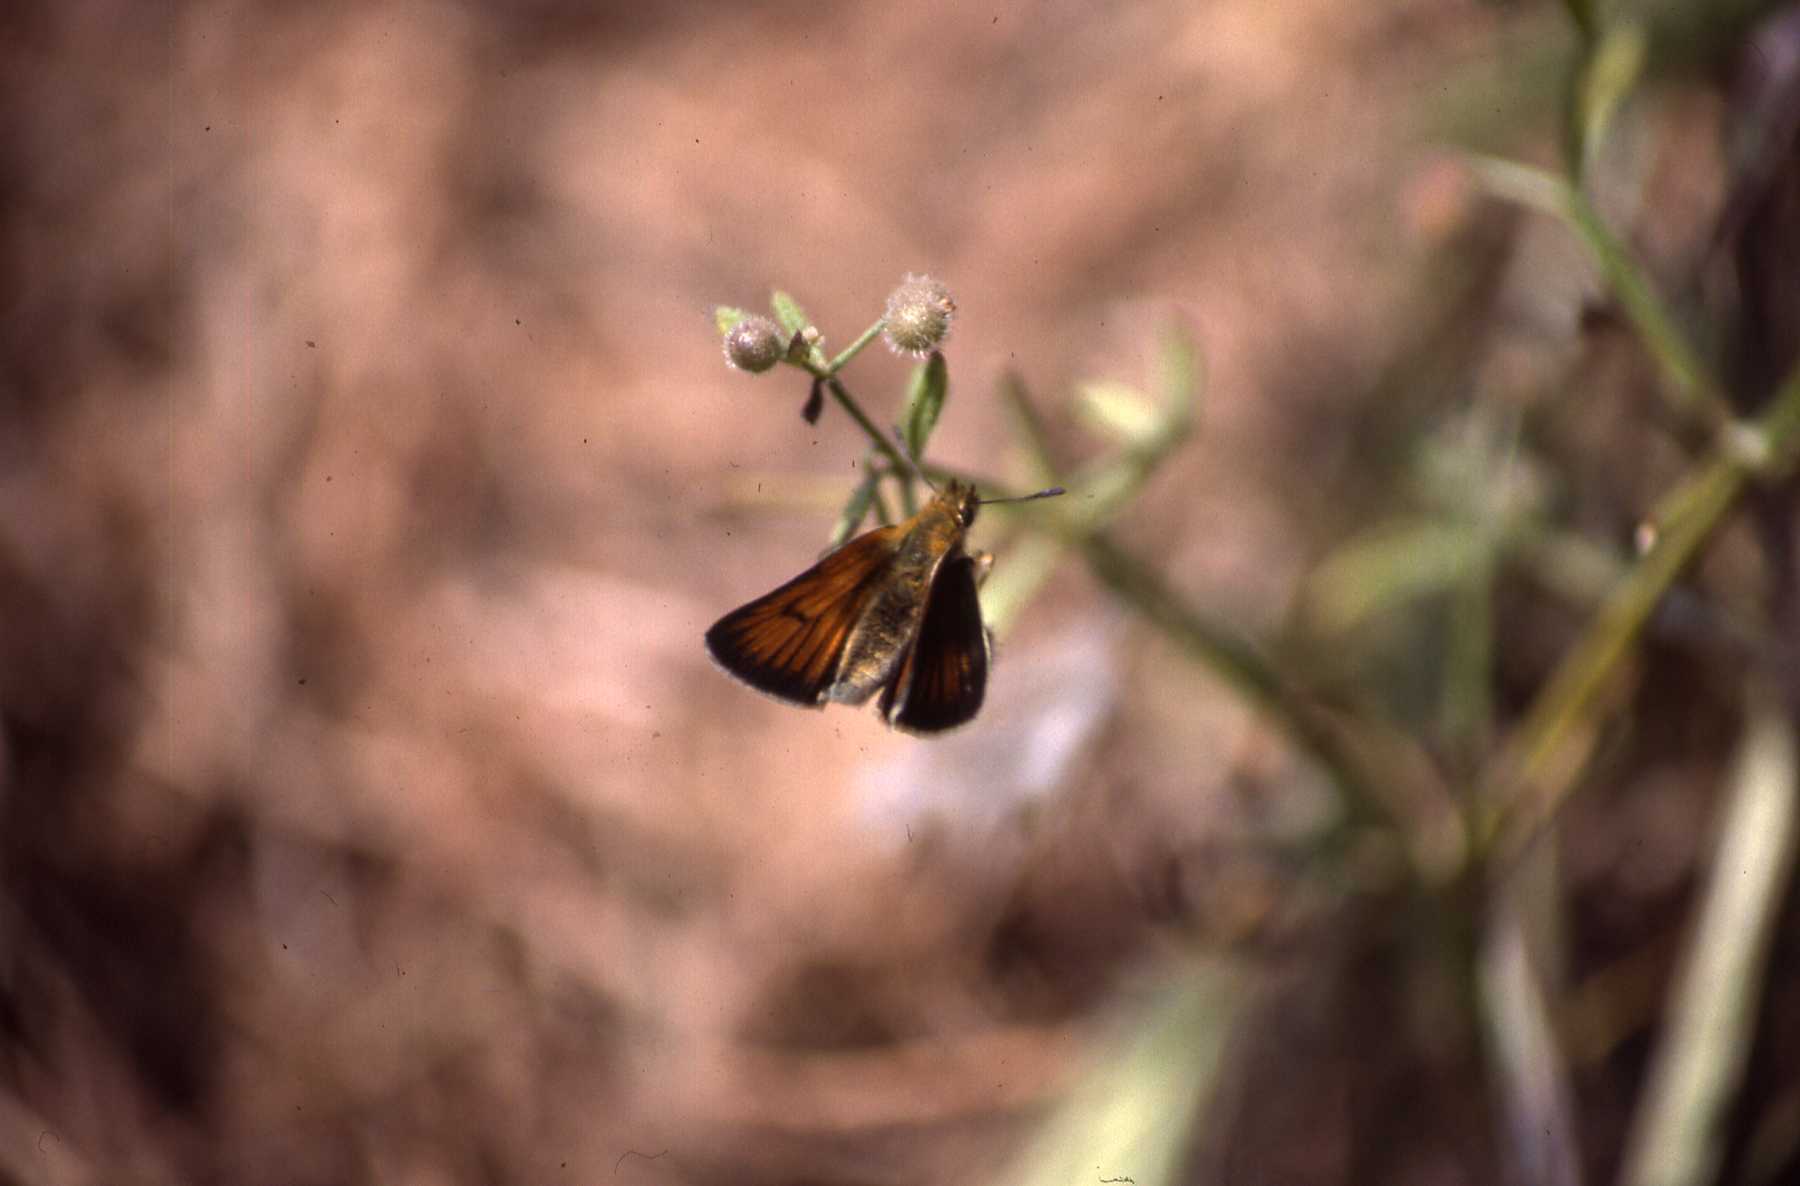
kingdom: Animalia
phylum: Arthropoda
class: Insecta
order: Lepidoptera
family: Hesperiidae
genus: Thymelicus
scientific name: Thymelicus lineola
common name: Essex skipper
